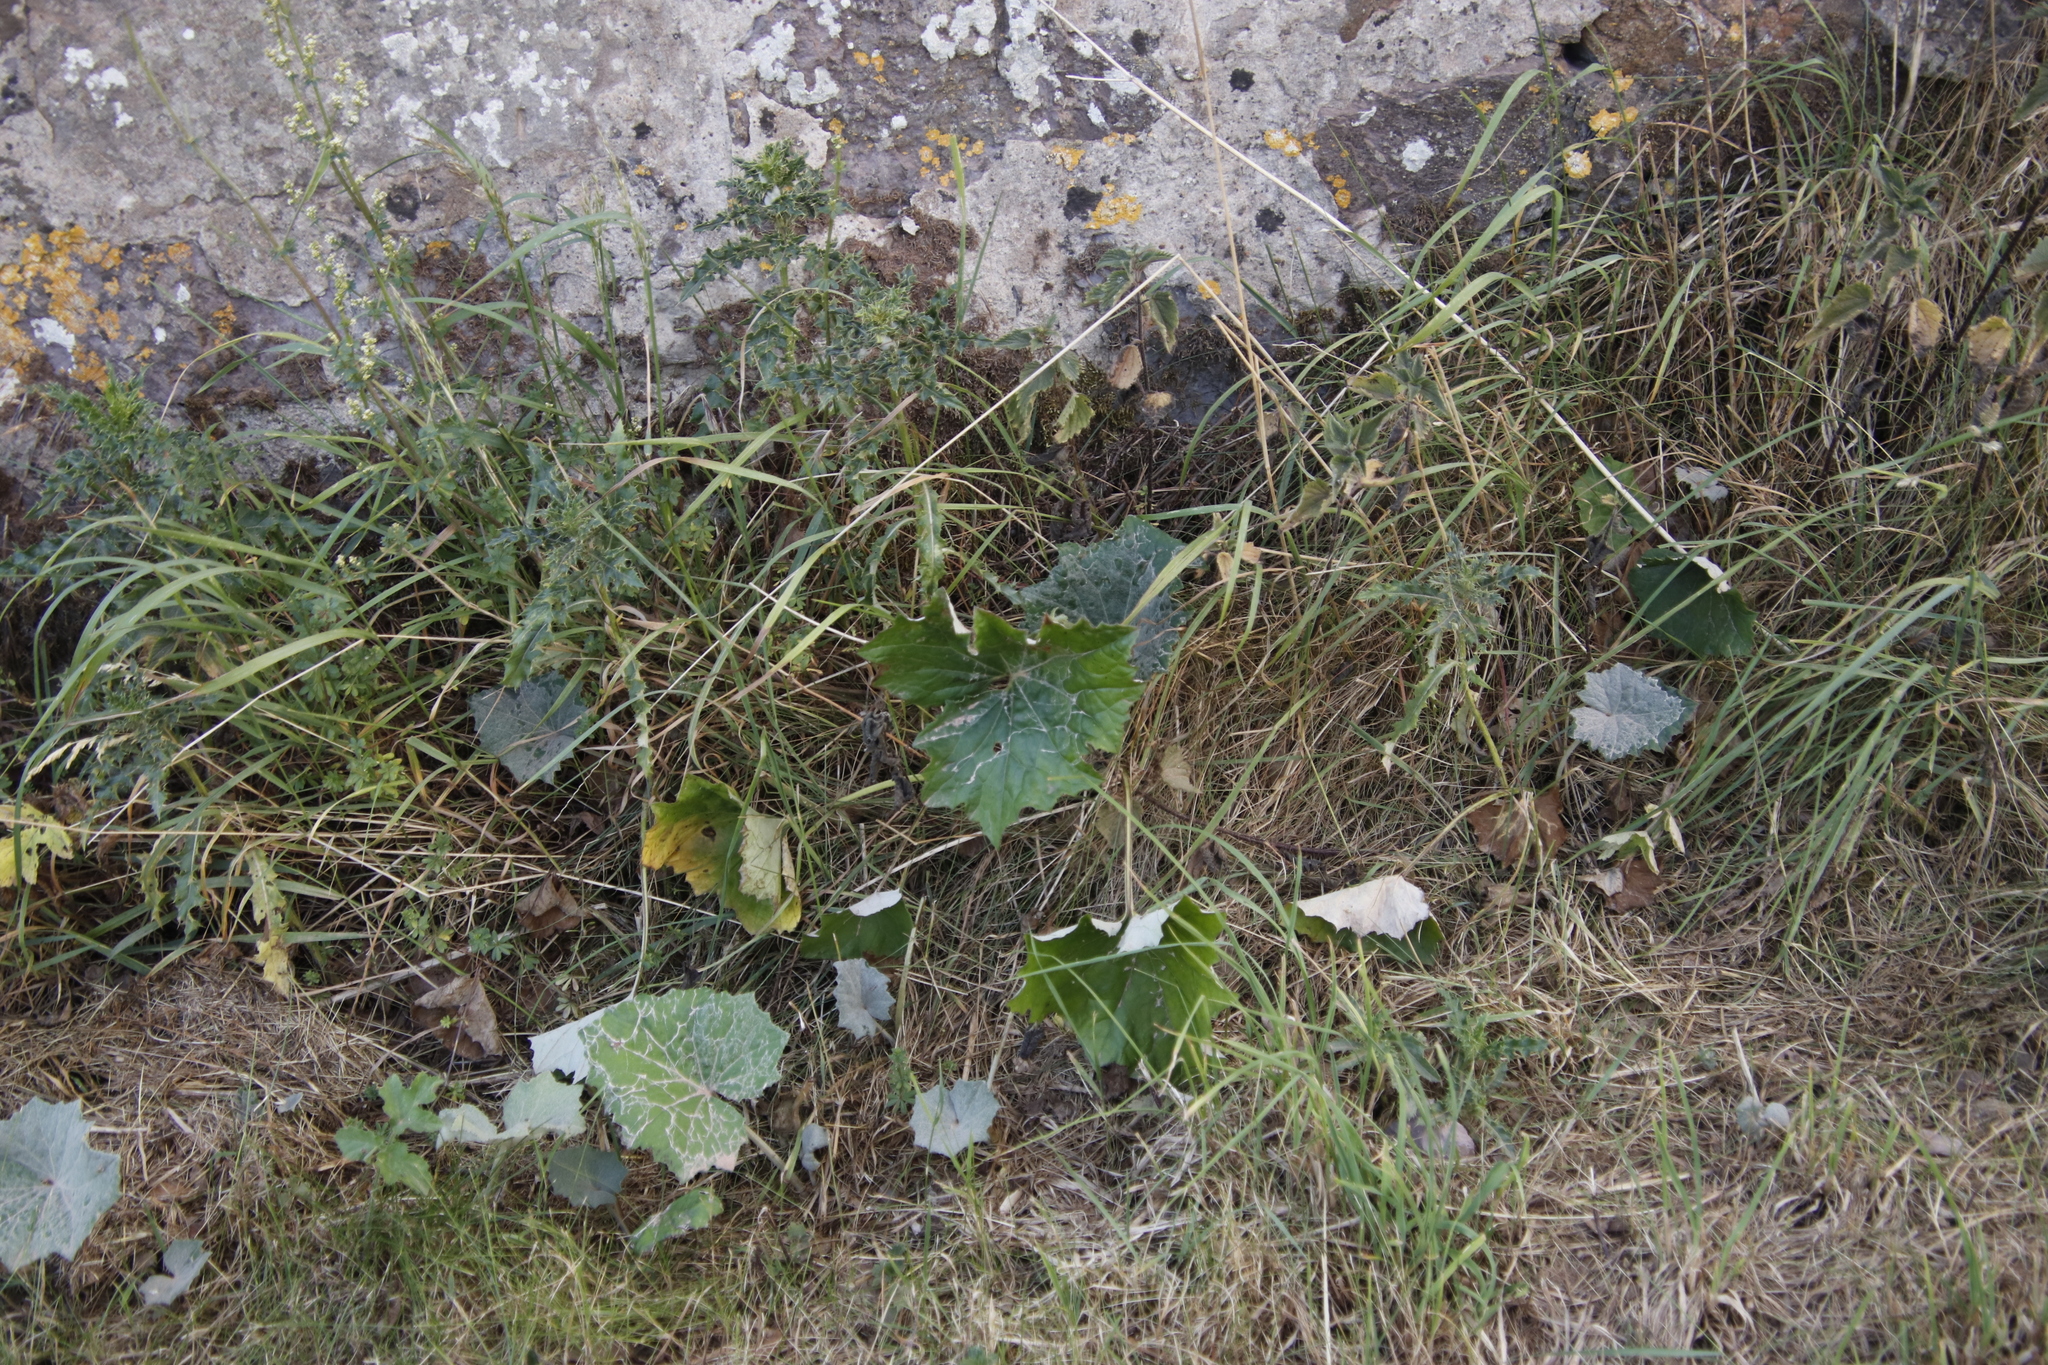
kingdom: Plantae
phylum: Tracheophyta
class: Magnoliopsida
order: Asterales
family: Asteraceae
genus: Tussilago
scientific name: Tussilago farfara
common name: Coltsfoot
